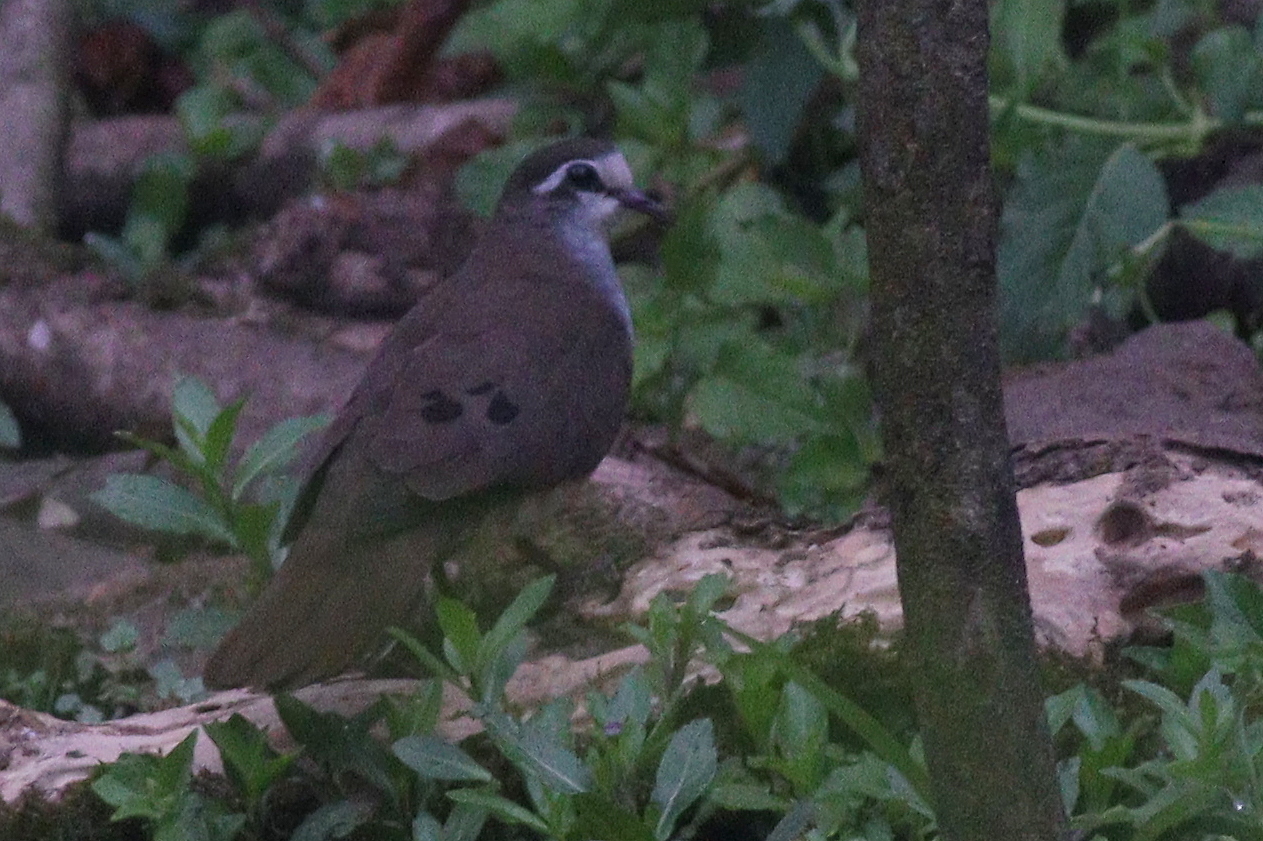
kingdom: Animalia
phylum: Chordata
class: Aves
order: Columbiformes
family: Columbidae
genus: Turtur
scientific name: Turtur tympanistria
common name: Tambourine dove
